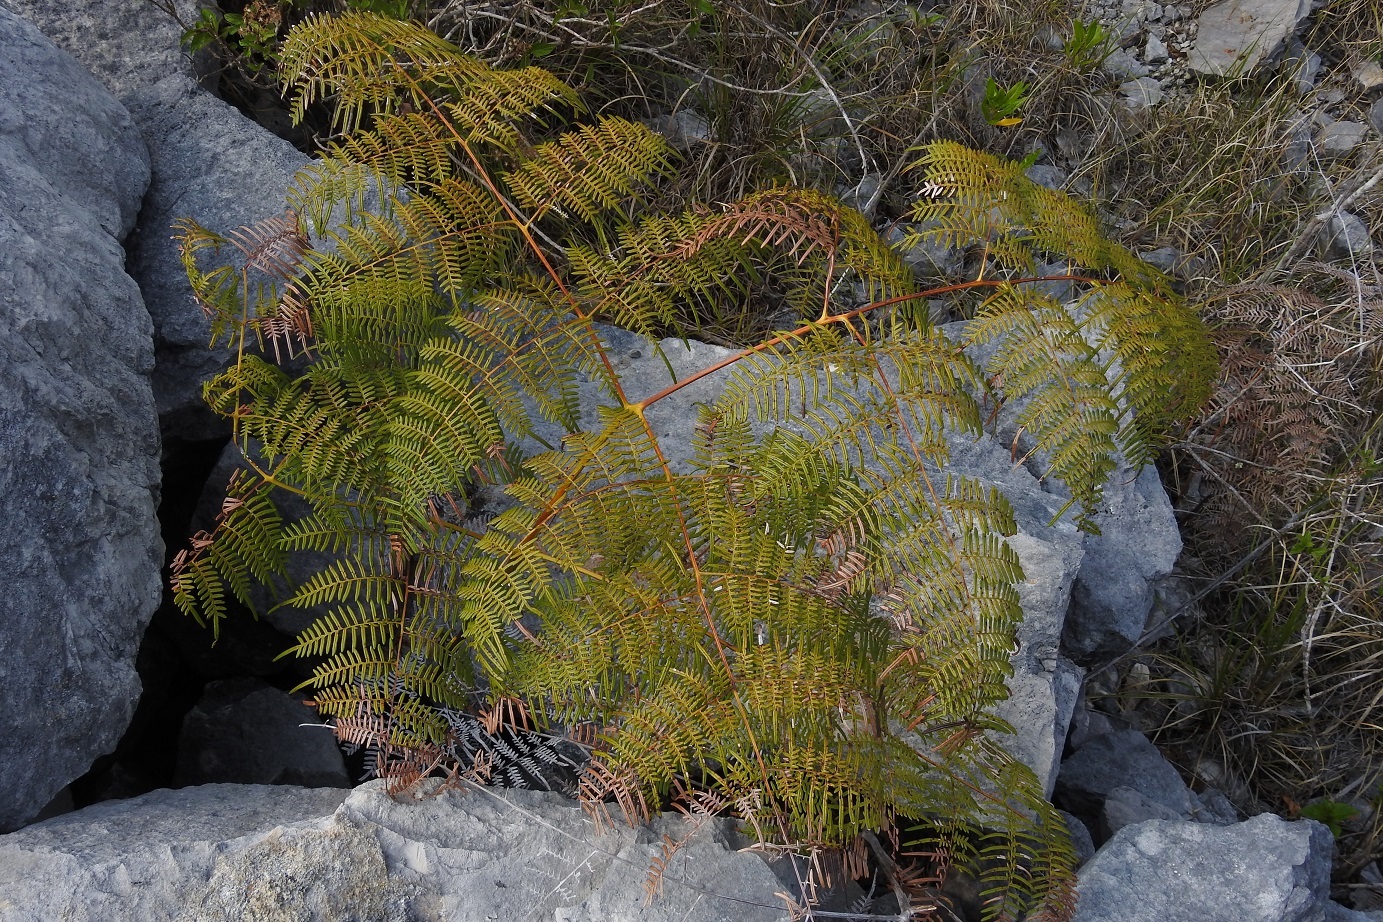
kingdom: Plantae
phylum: Tracheophyta
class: Polypodiopsida
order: Polypodiales
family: Dennstaedtiaceae
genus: Pteridium
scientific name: Pteridium caudatum
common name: Southern bracken fern
